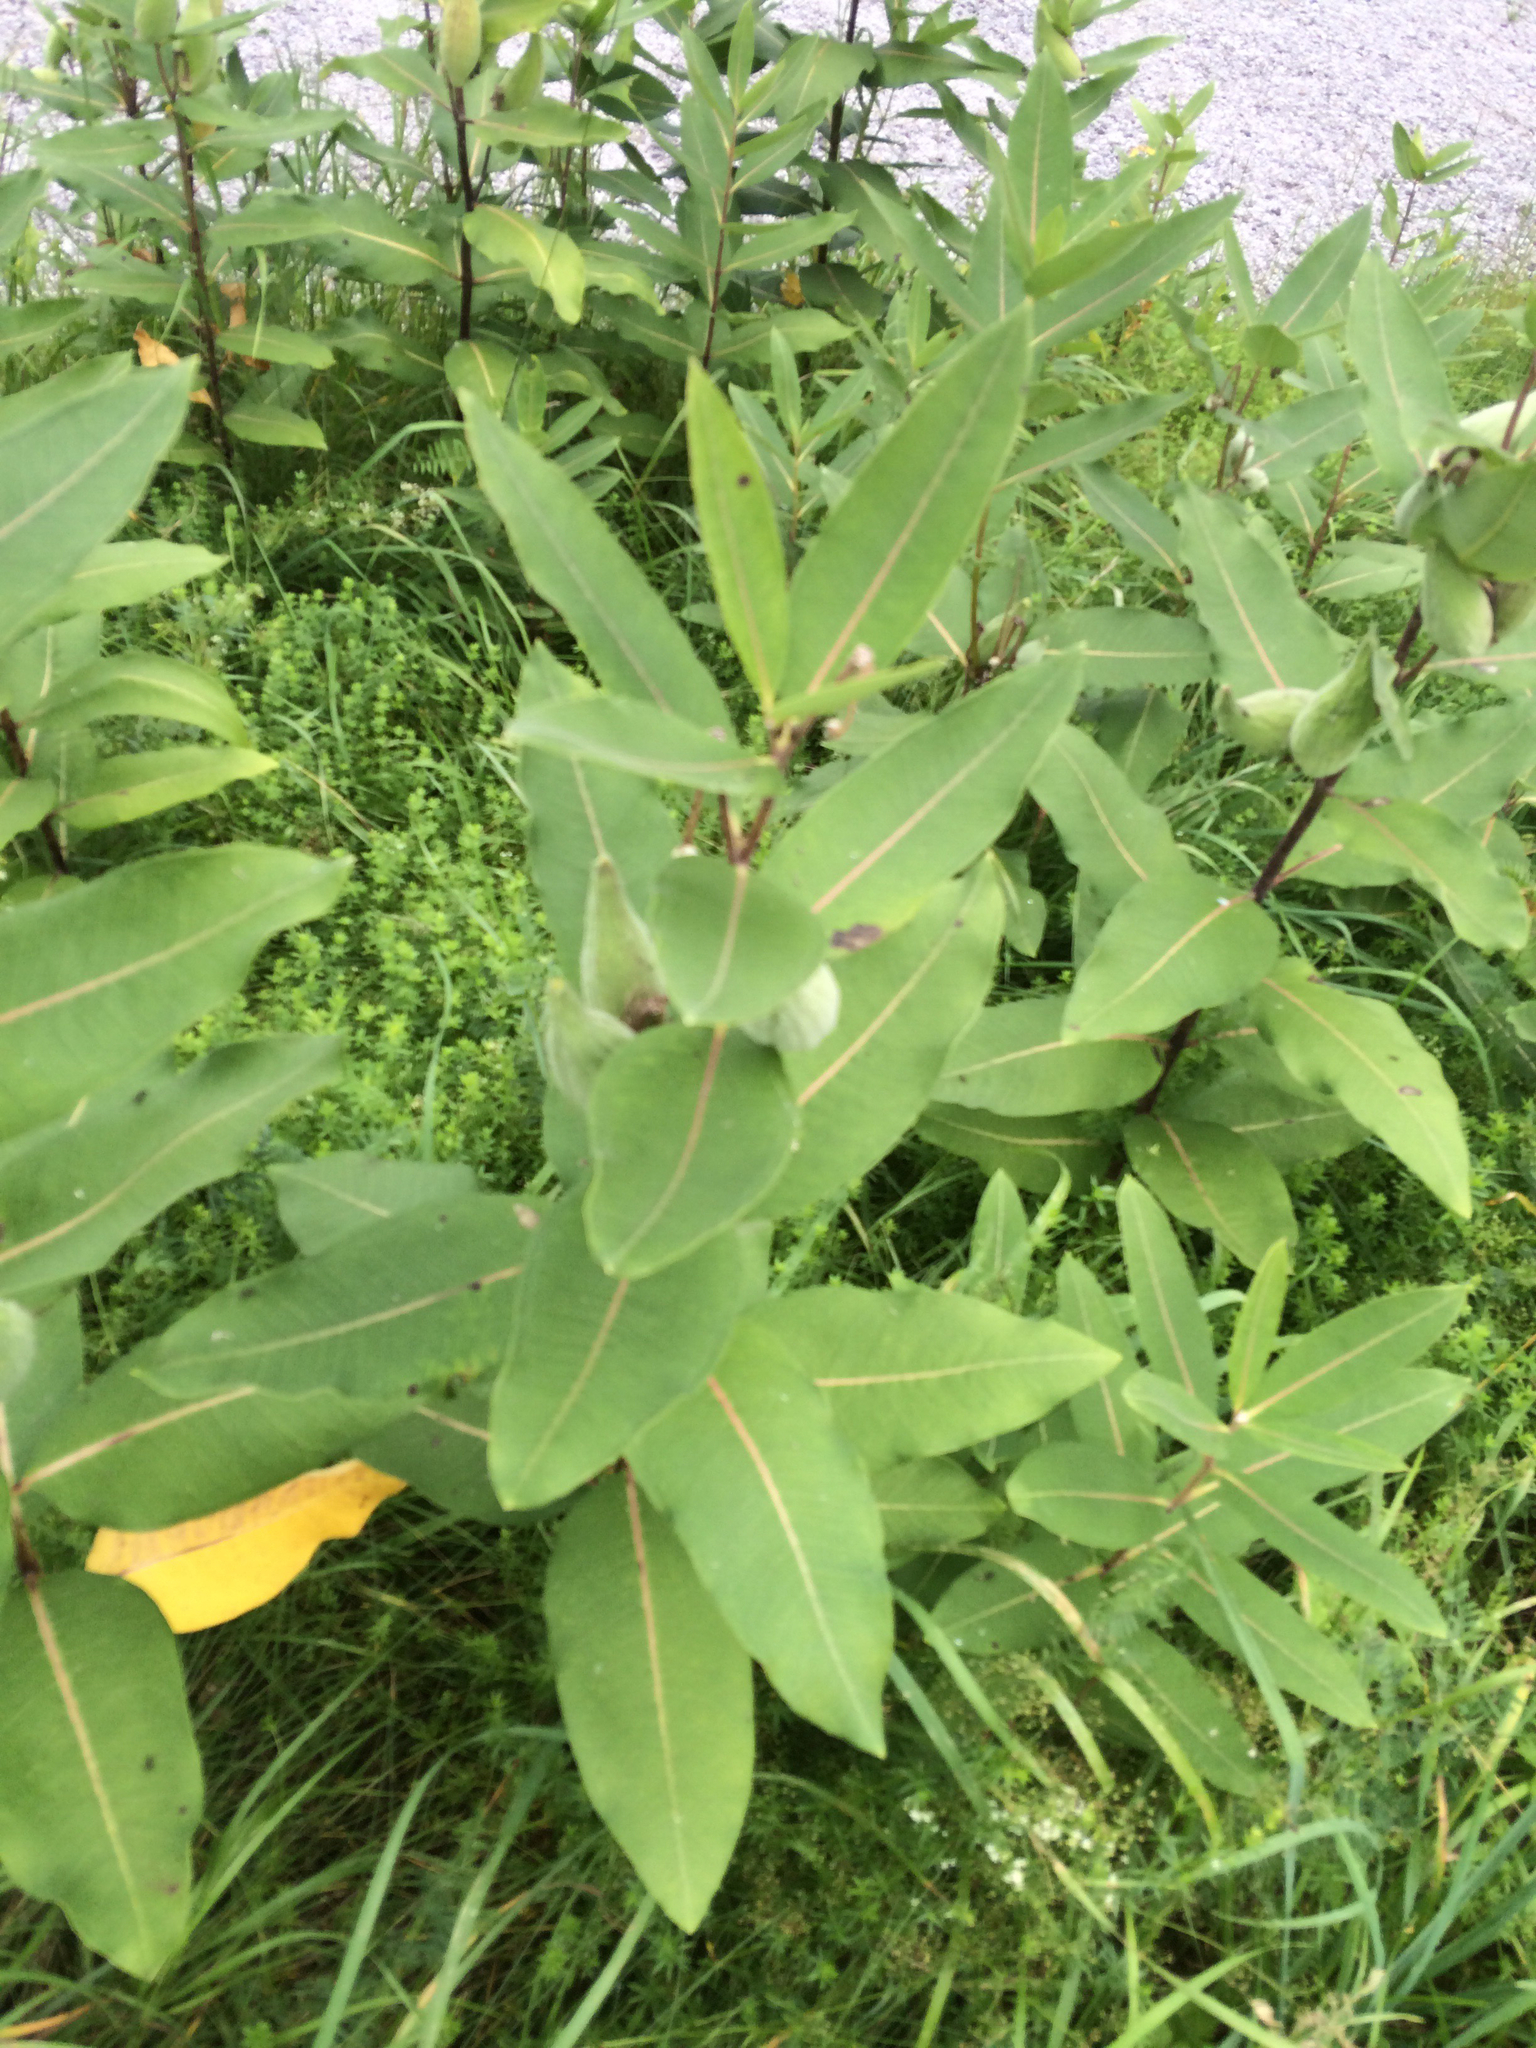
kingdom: Plantae
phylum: Tracheophyta
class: Magnoliopsida
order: Gentianales
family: Apocynaceae
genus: Asclepias
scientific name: Asclepias syriaca
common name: Common milkweed
